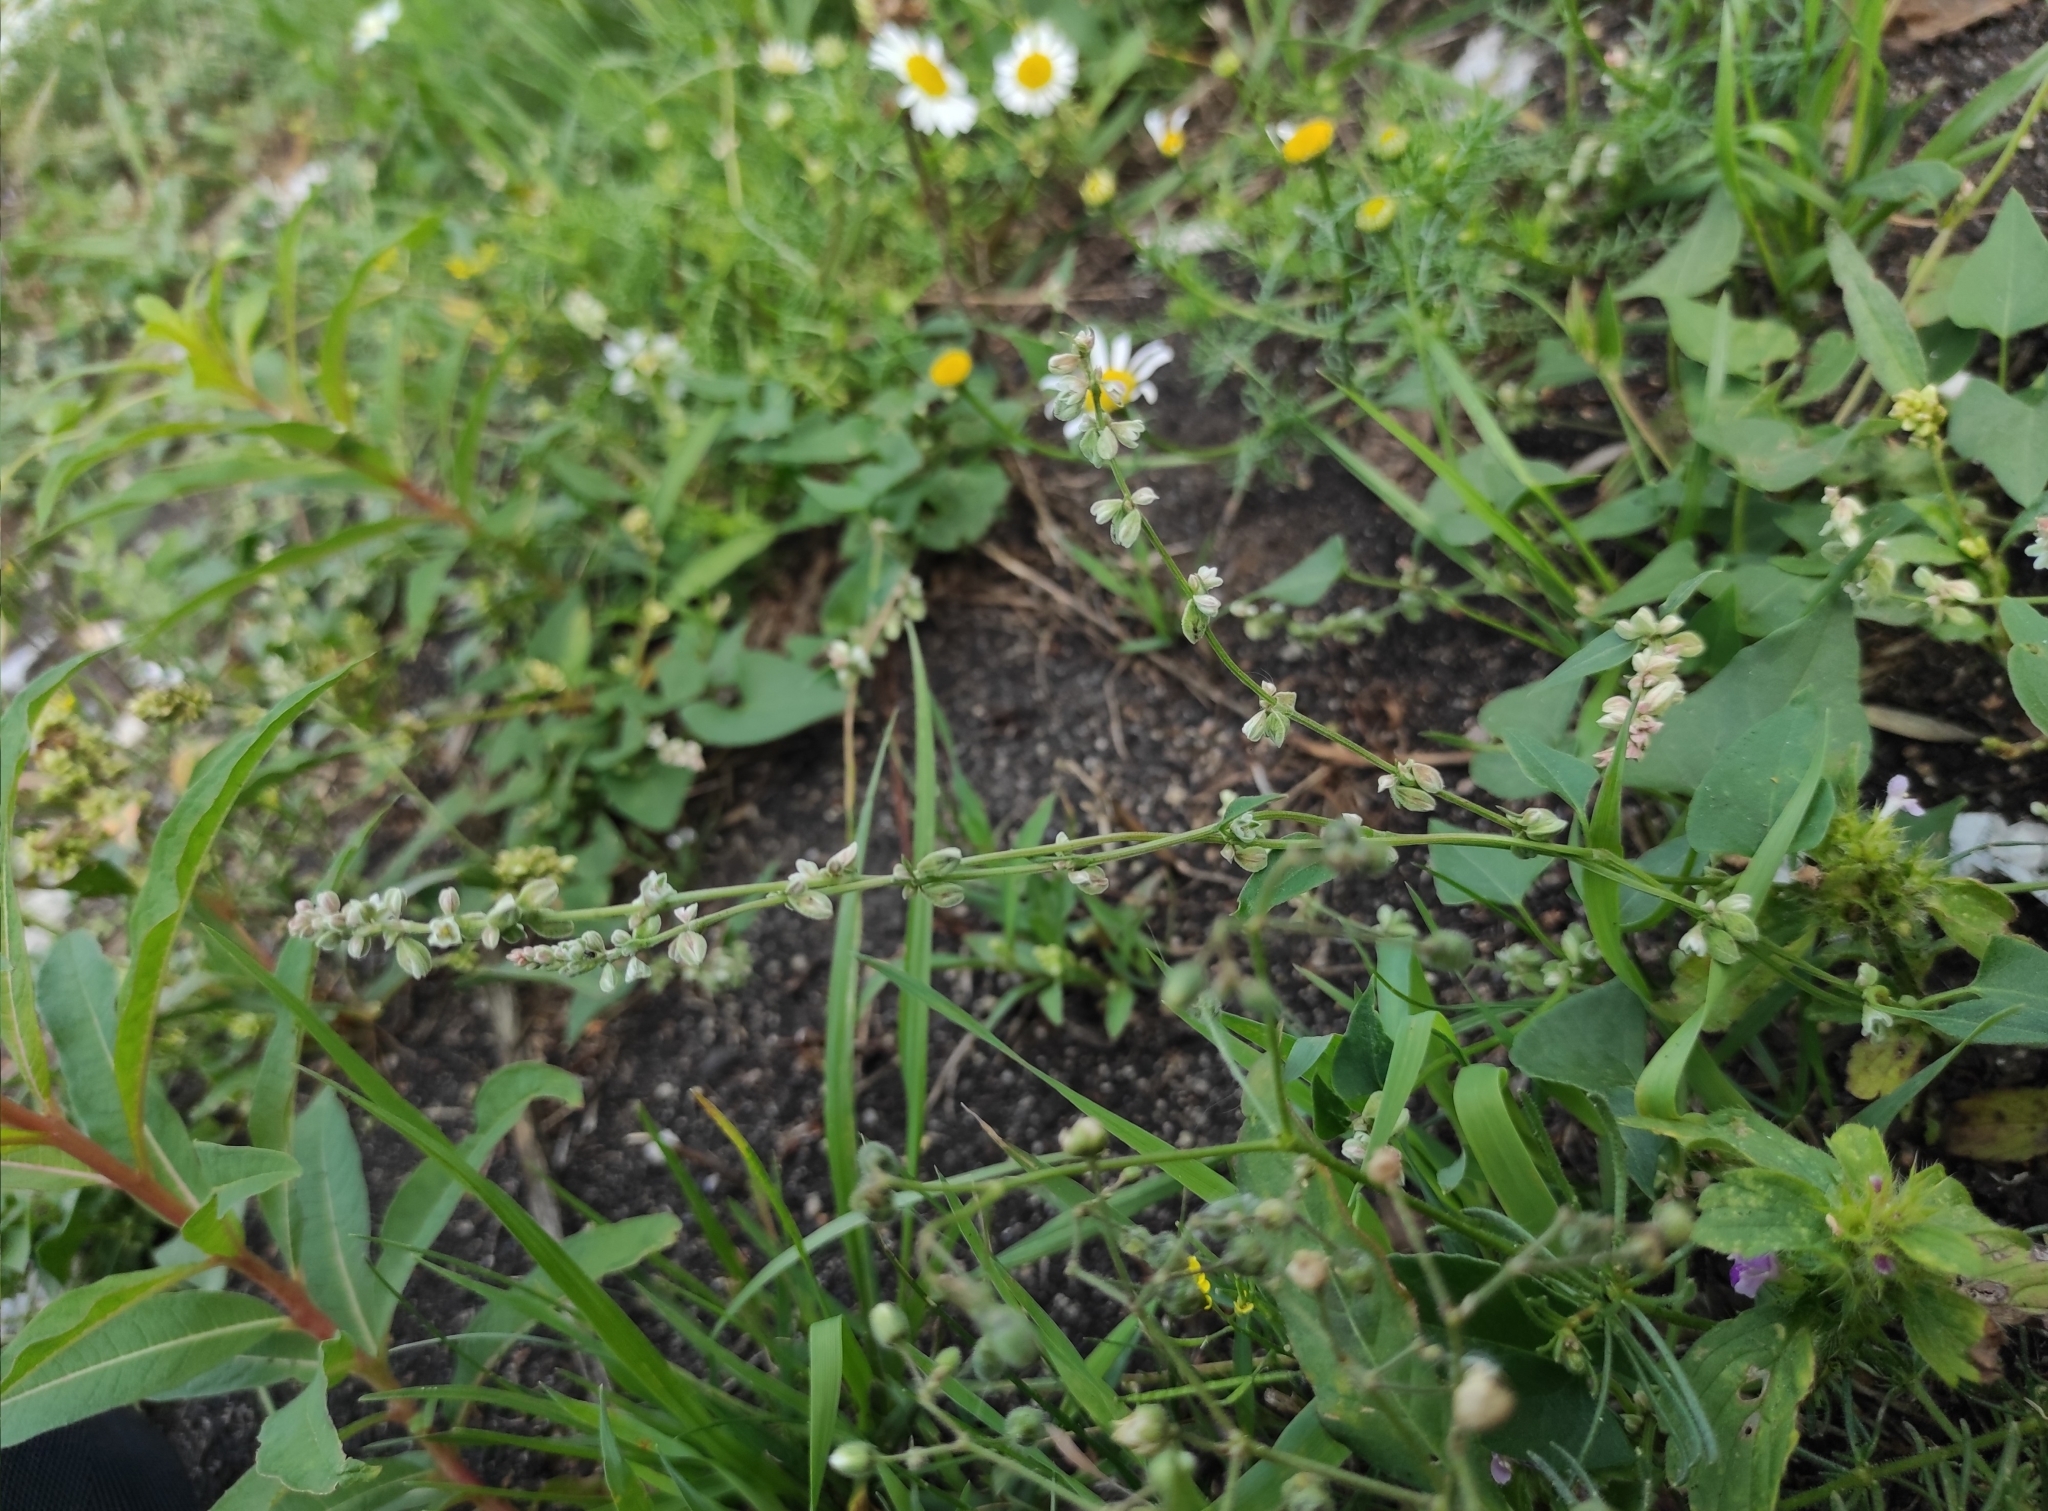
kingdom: Plantae
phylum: Tracheophyta
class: Magnoliopsida
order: Caryophyllales
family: Polygonaceae
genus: Fallopia
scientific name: Fallopia convolvulus
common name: Black bindweed
